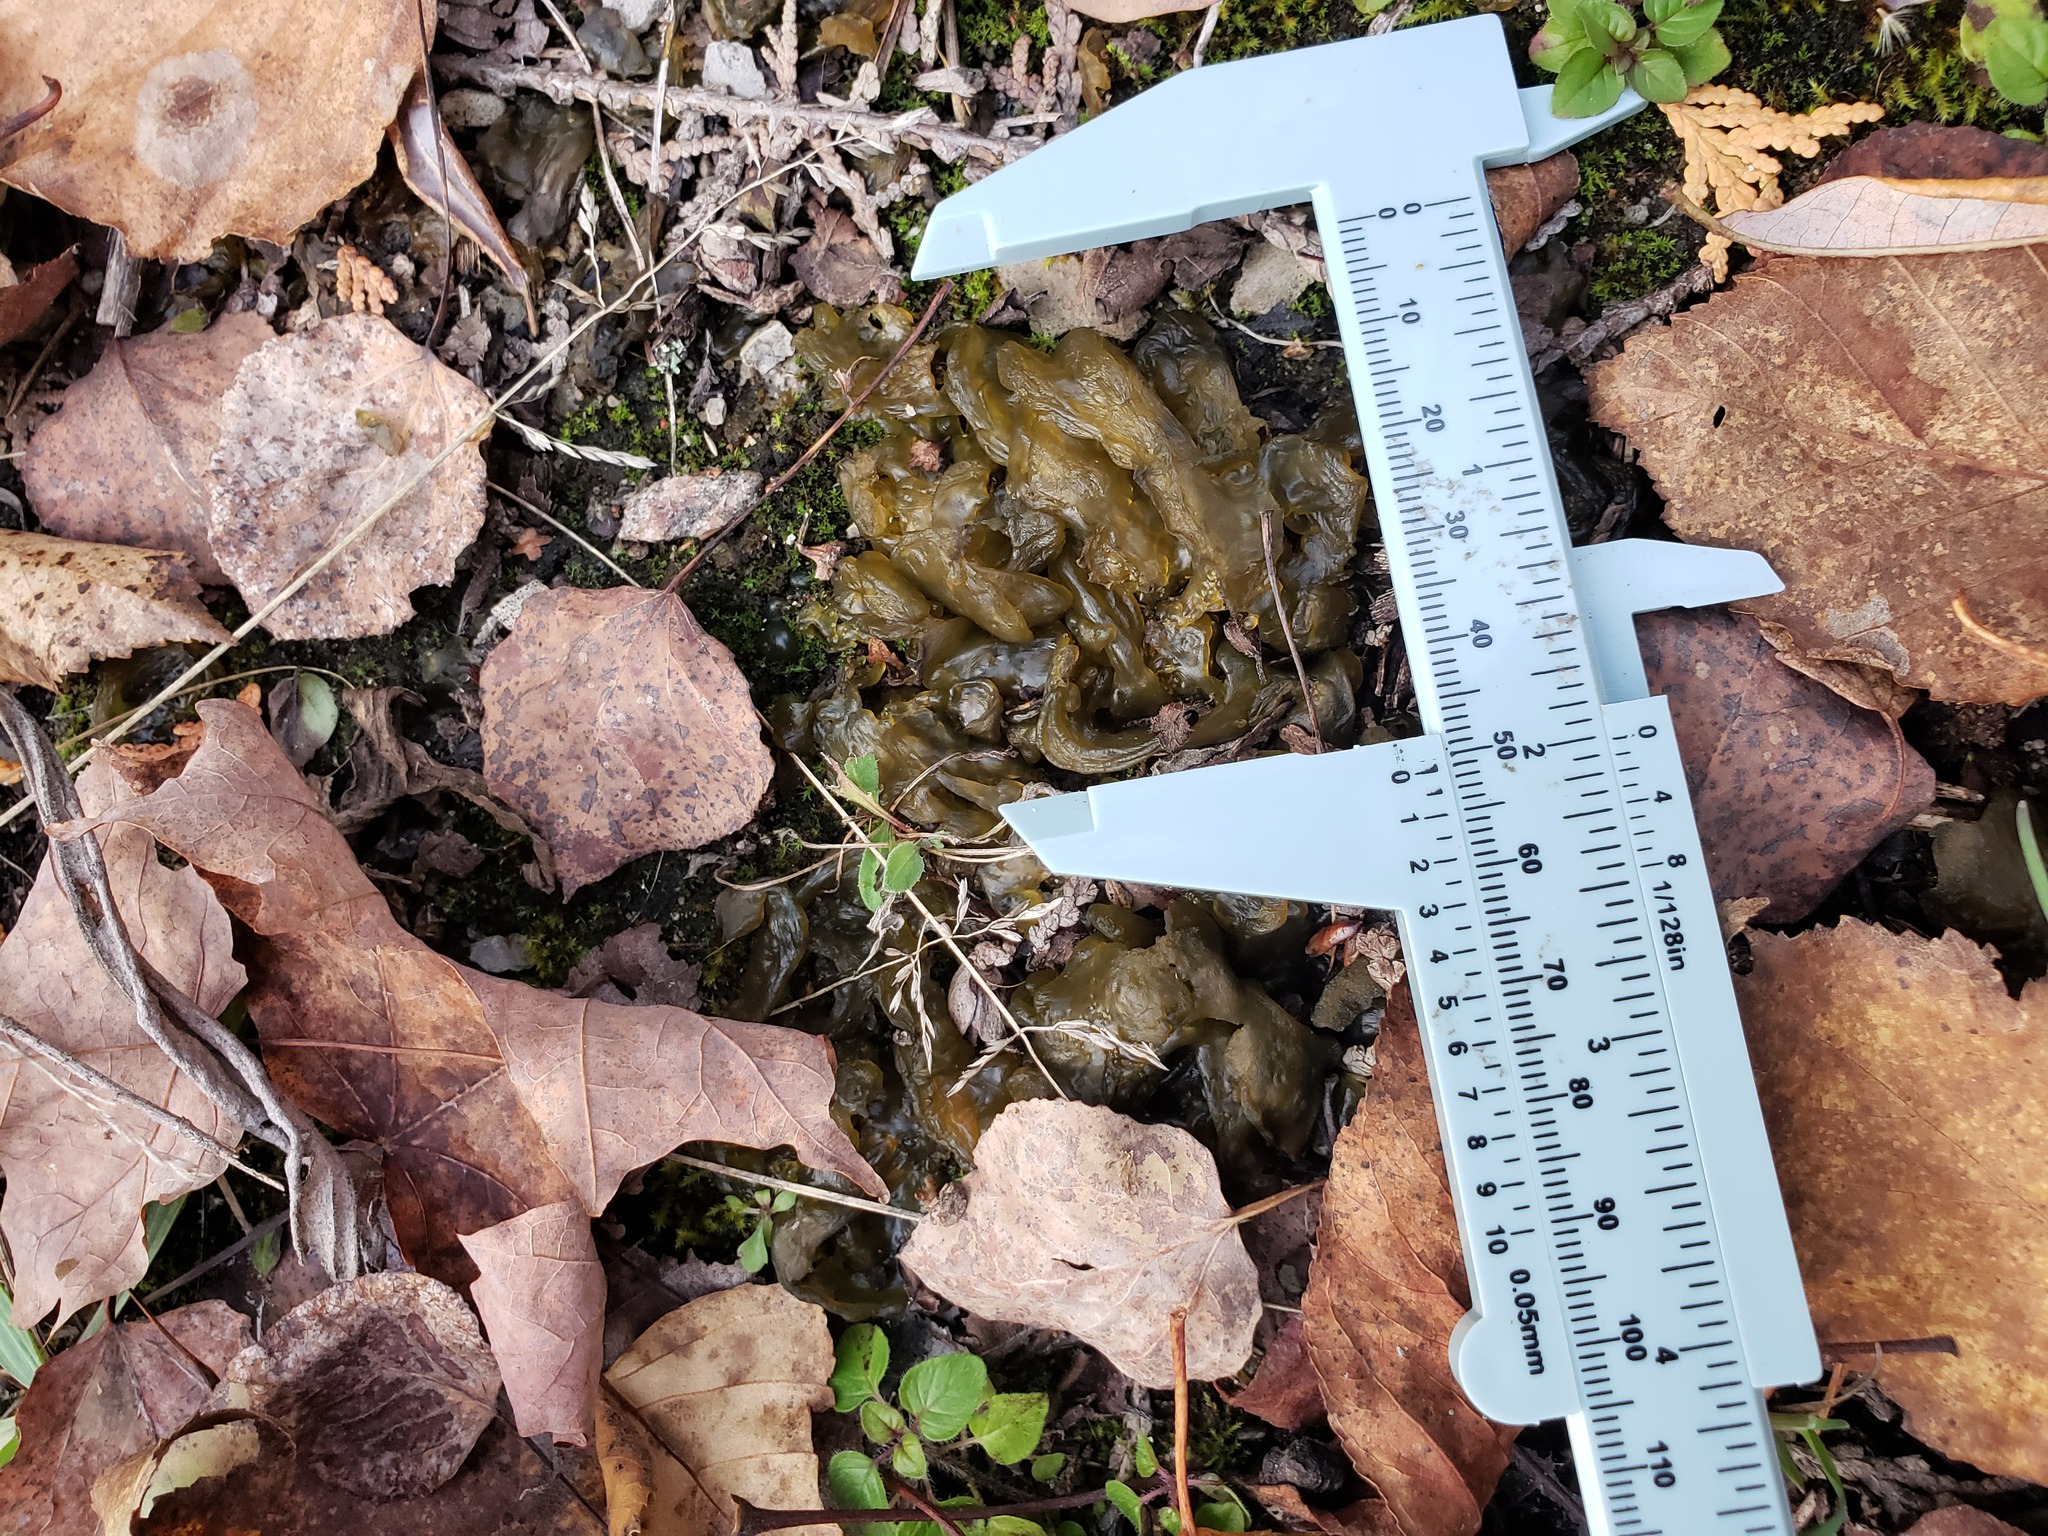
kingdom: Bacteria
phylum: Cyanobacteria
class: Cyanobacteriia
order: Cyanobacteriales
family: Nostocaceae
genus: Nostoc
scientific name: Nostoc commune
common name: Star jelly
